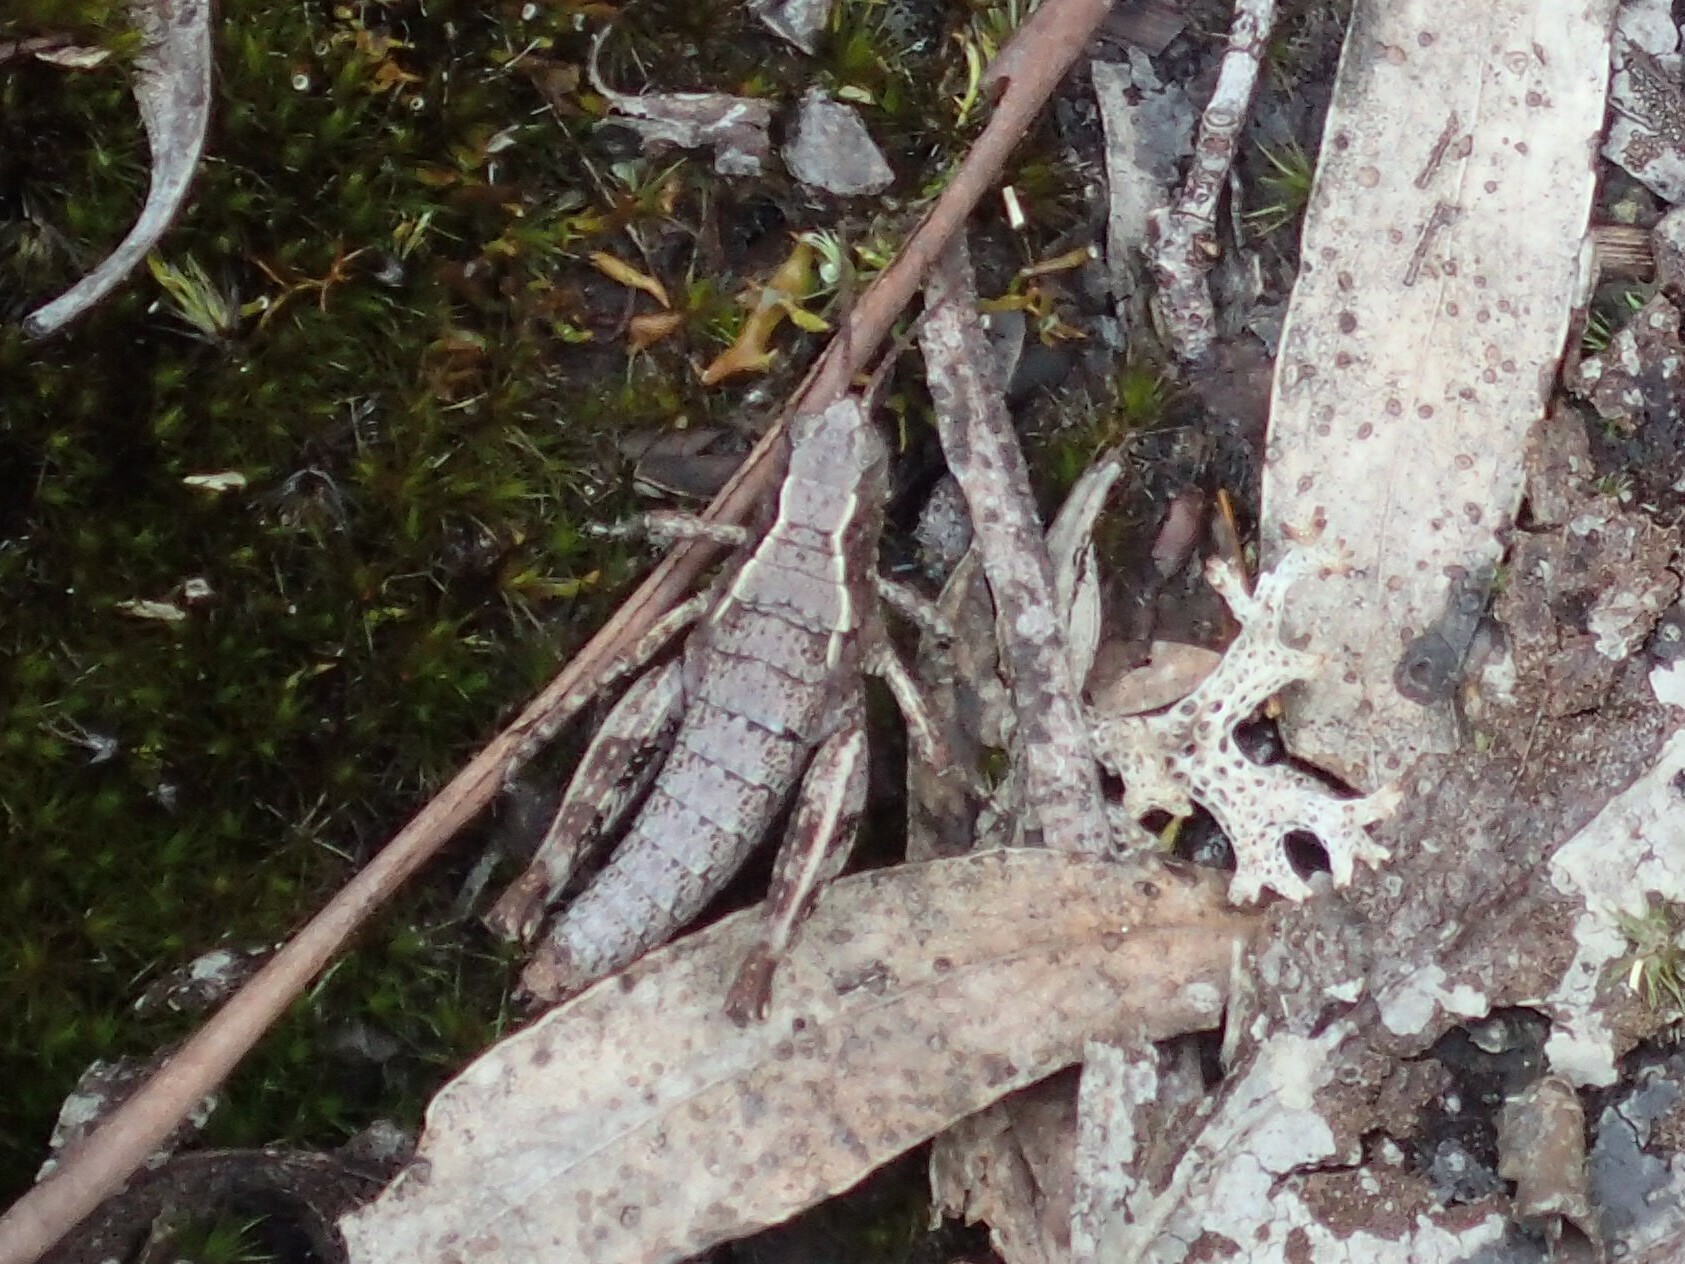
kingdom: Animalia
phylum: Arthropoda
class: Insecta
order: Orthoptera
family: Acrididae
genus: Tasmaniacris
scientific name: Tasmaniacris tasmaniensis
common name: Tasmanian grasshopper
